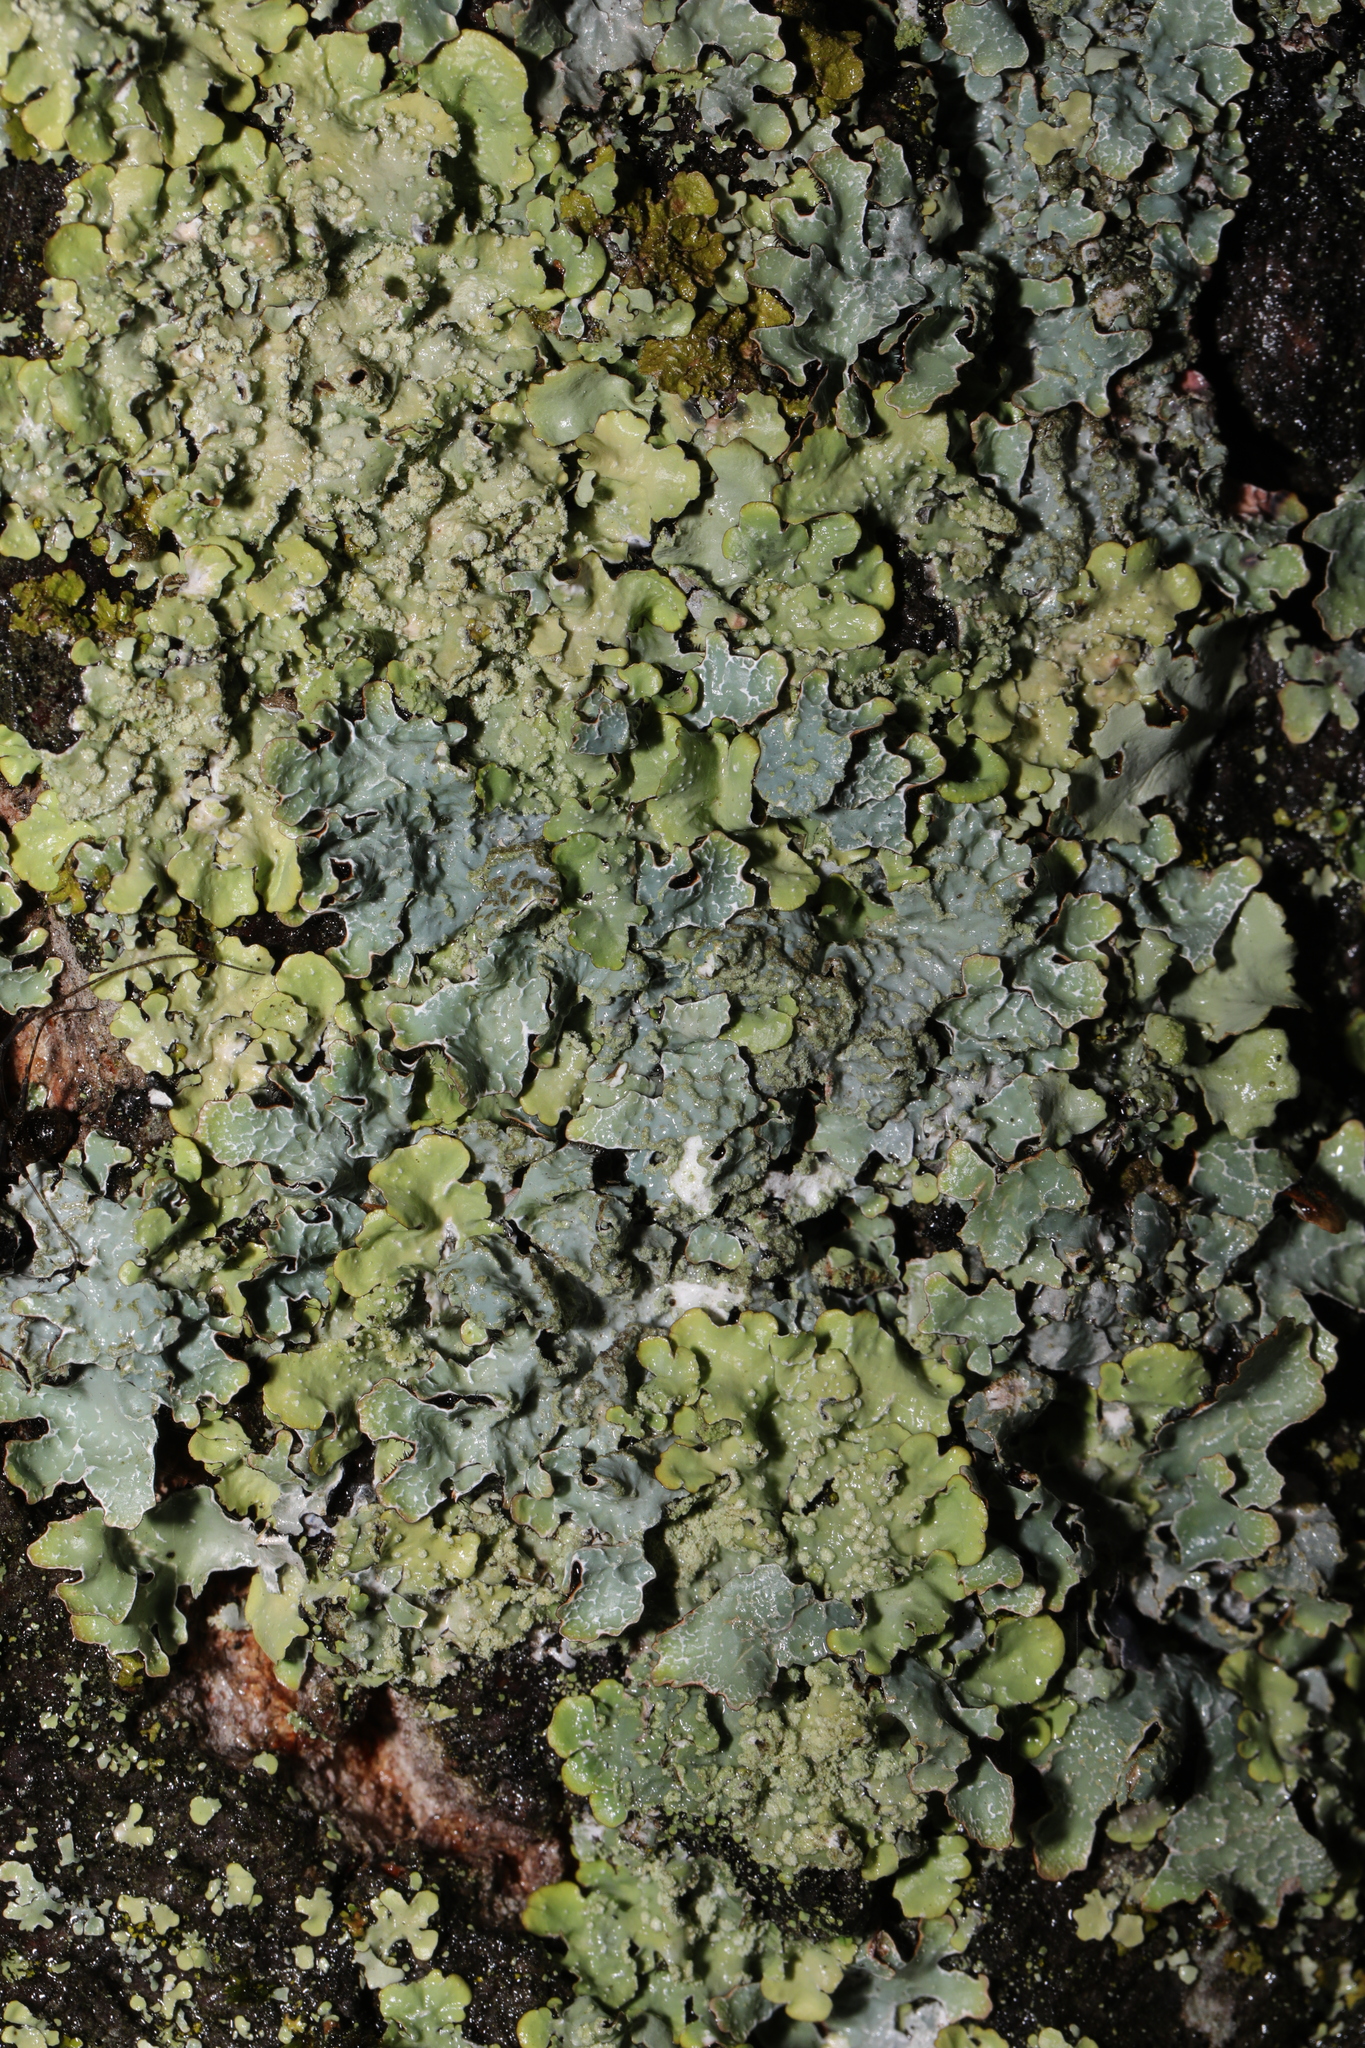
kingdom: Fungi
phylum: Ascomycota
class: Lecanoromycetes
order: Lecanorales
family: Parmeliaceae
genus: Parmelia
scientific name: Parmelia sulcata
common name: Netted shield lichen
